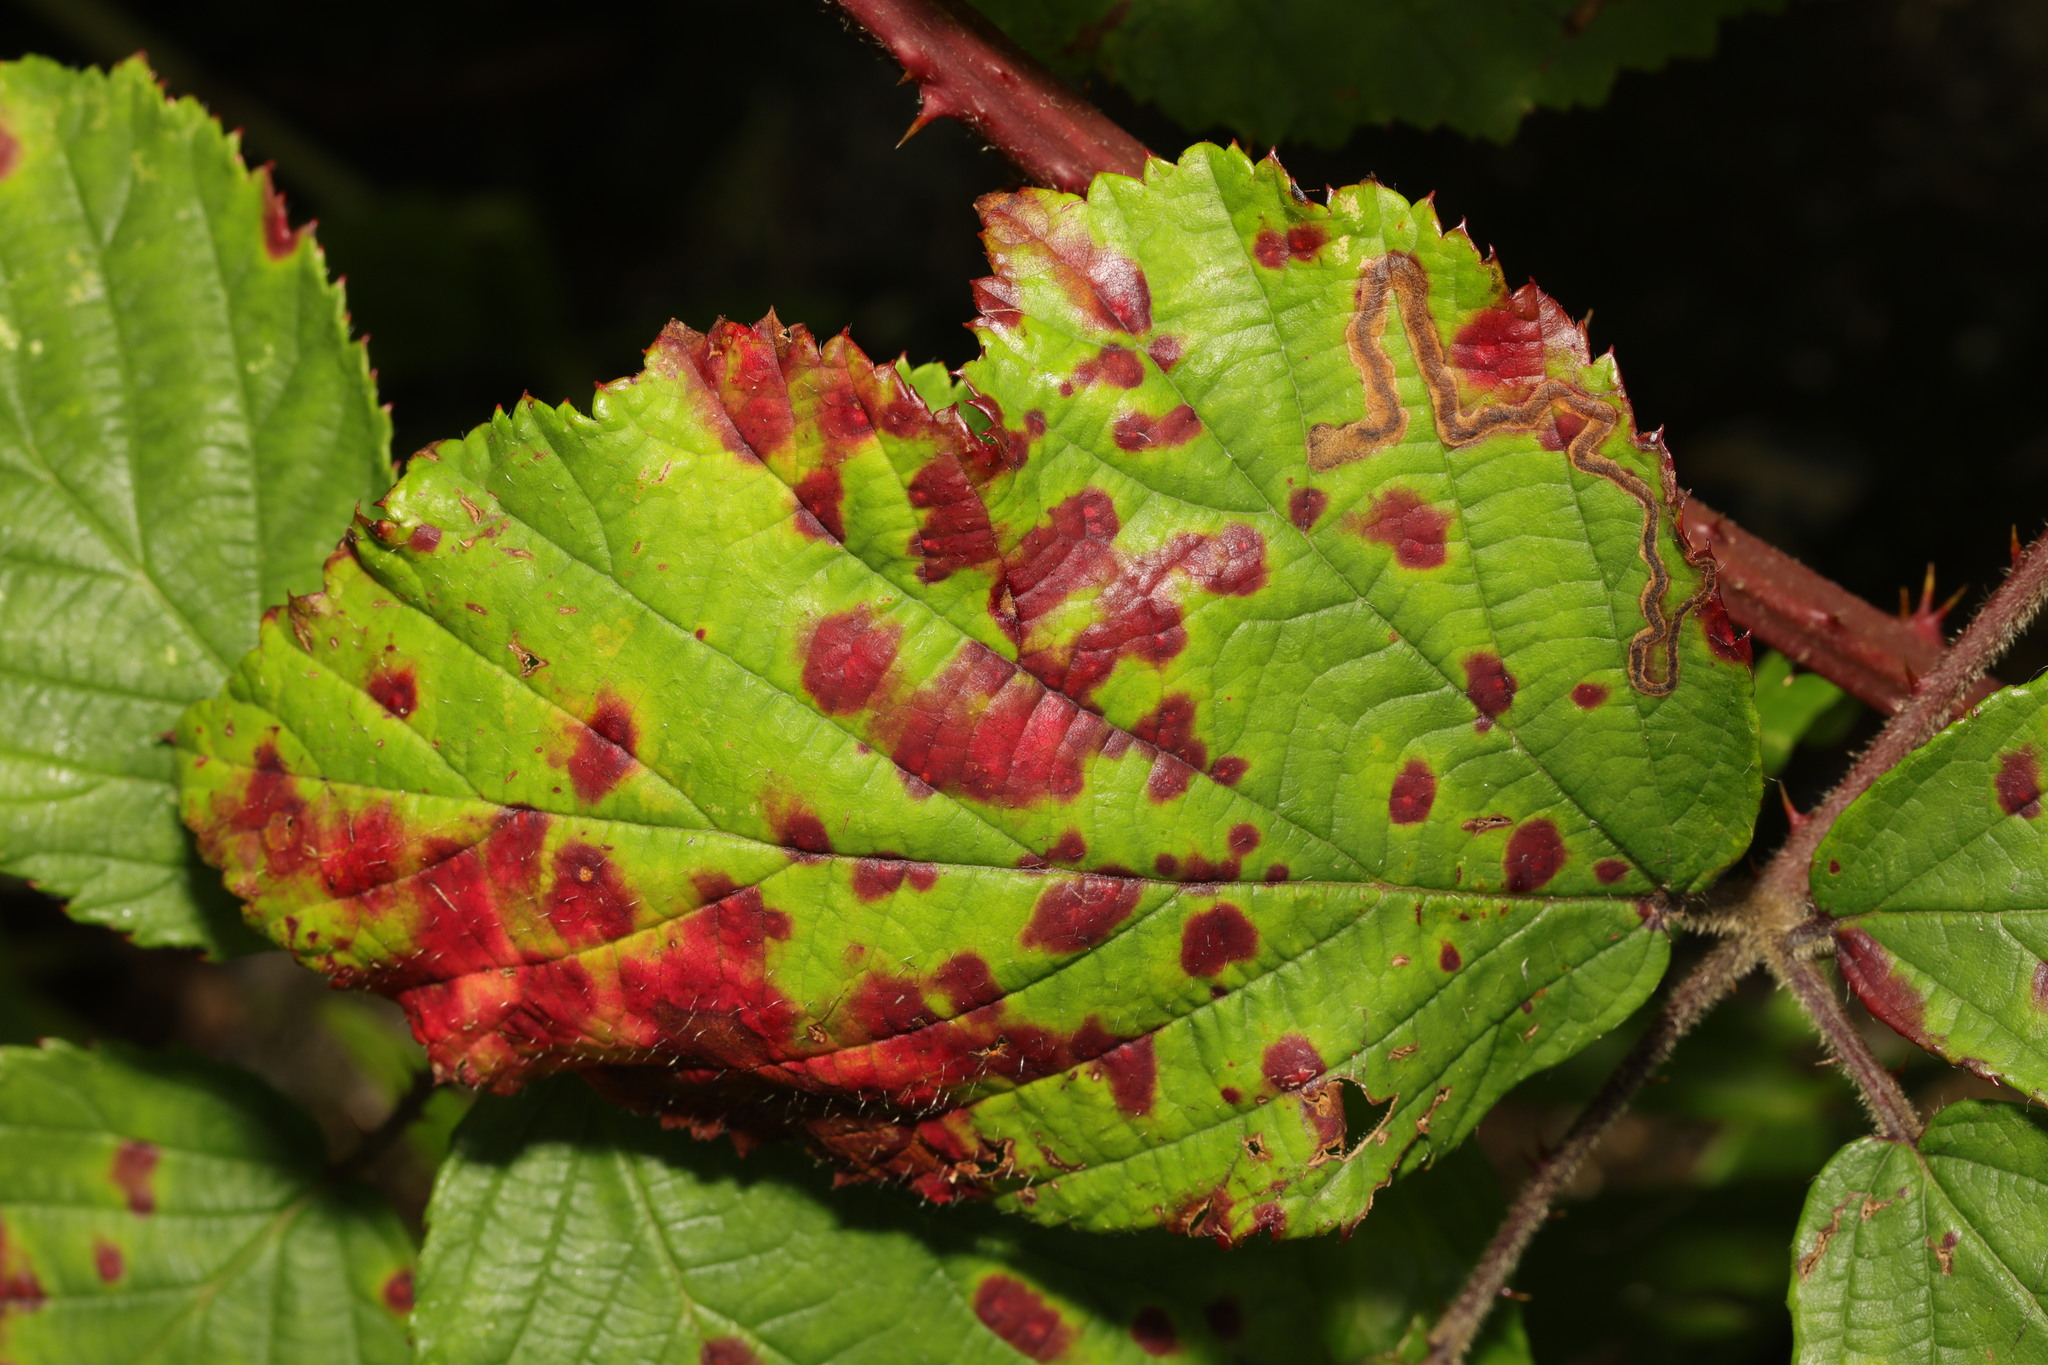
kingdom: Fungi
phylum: Basidiomycota
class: Pucciniomycetes
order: Pucciniales
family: Phragmidiaceae
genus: Phragmidium
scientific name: Phragmidium violaceum
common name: Violet bramble rust
